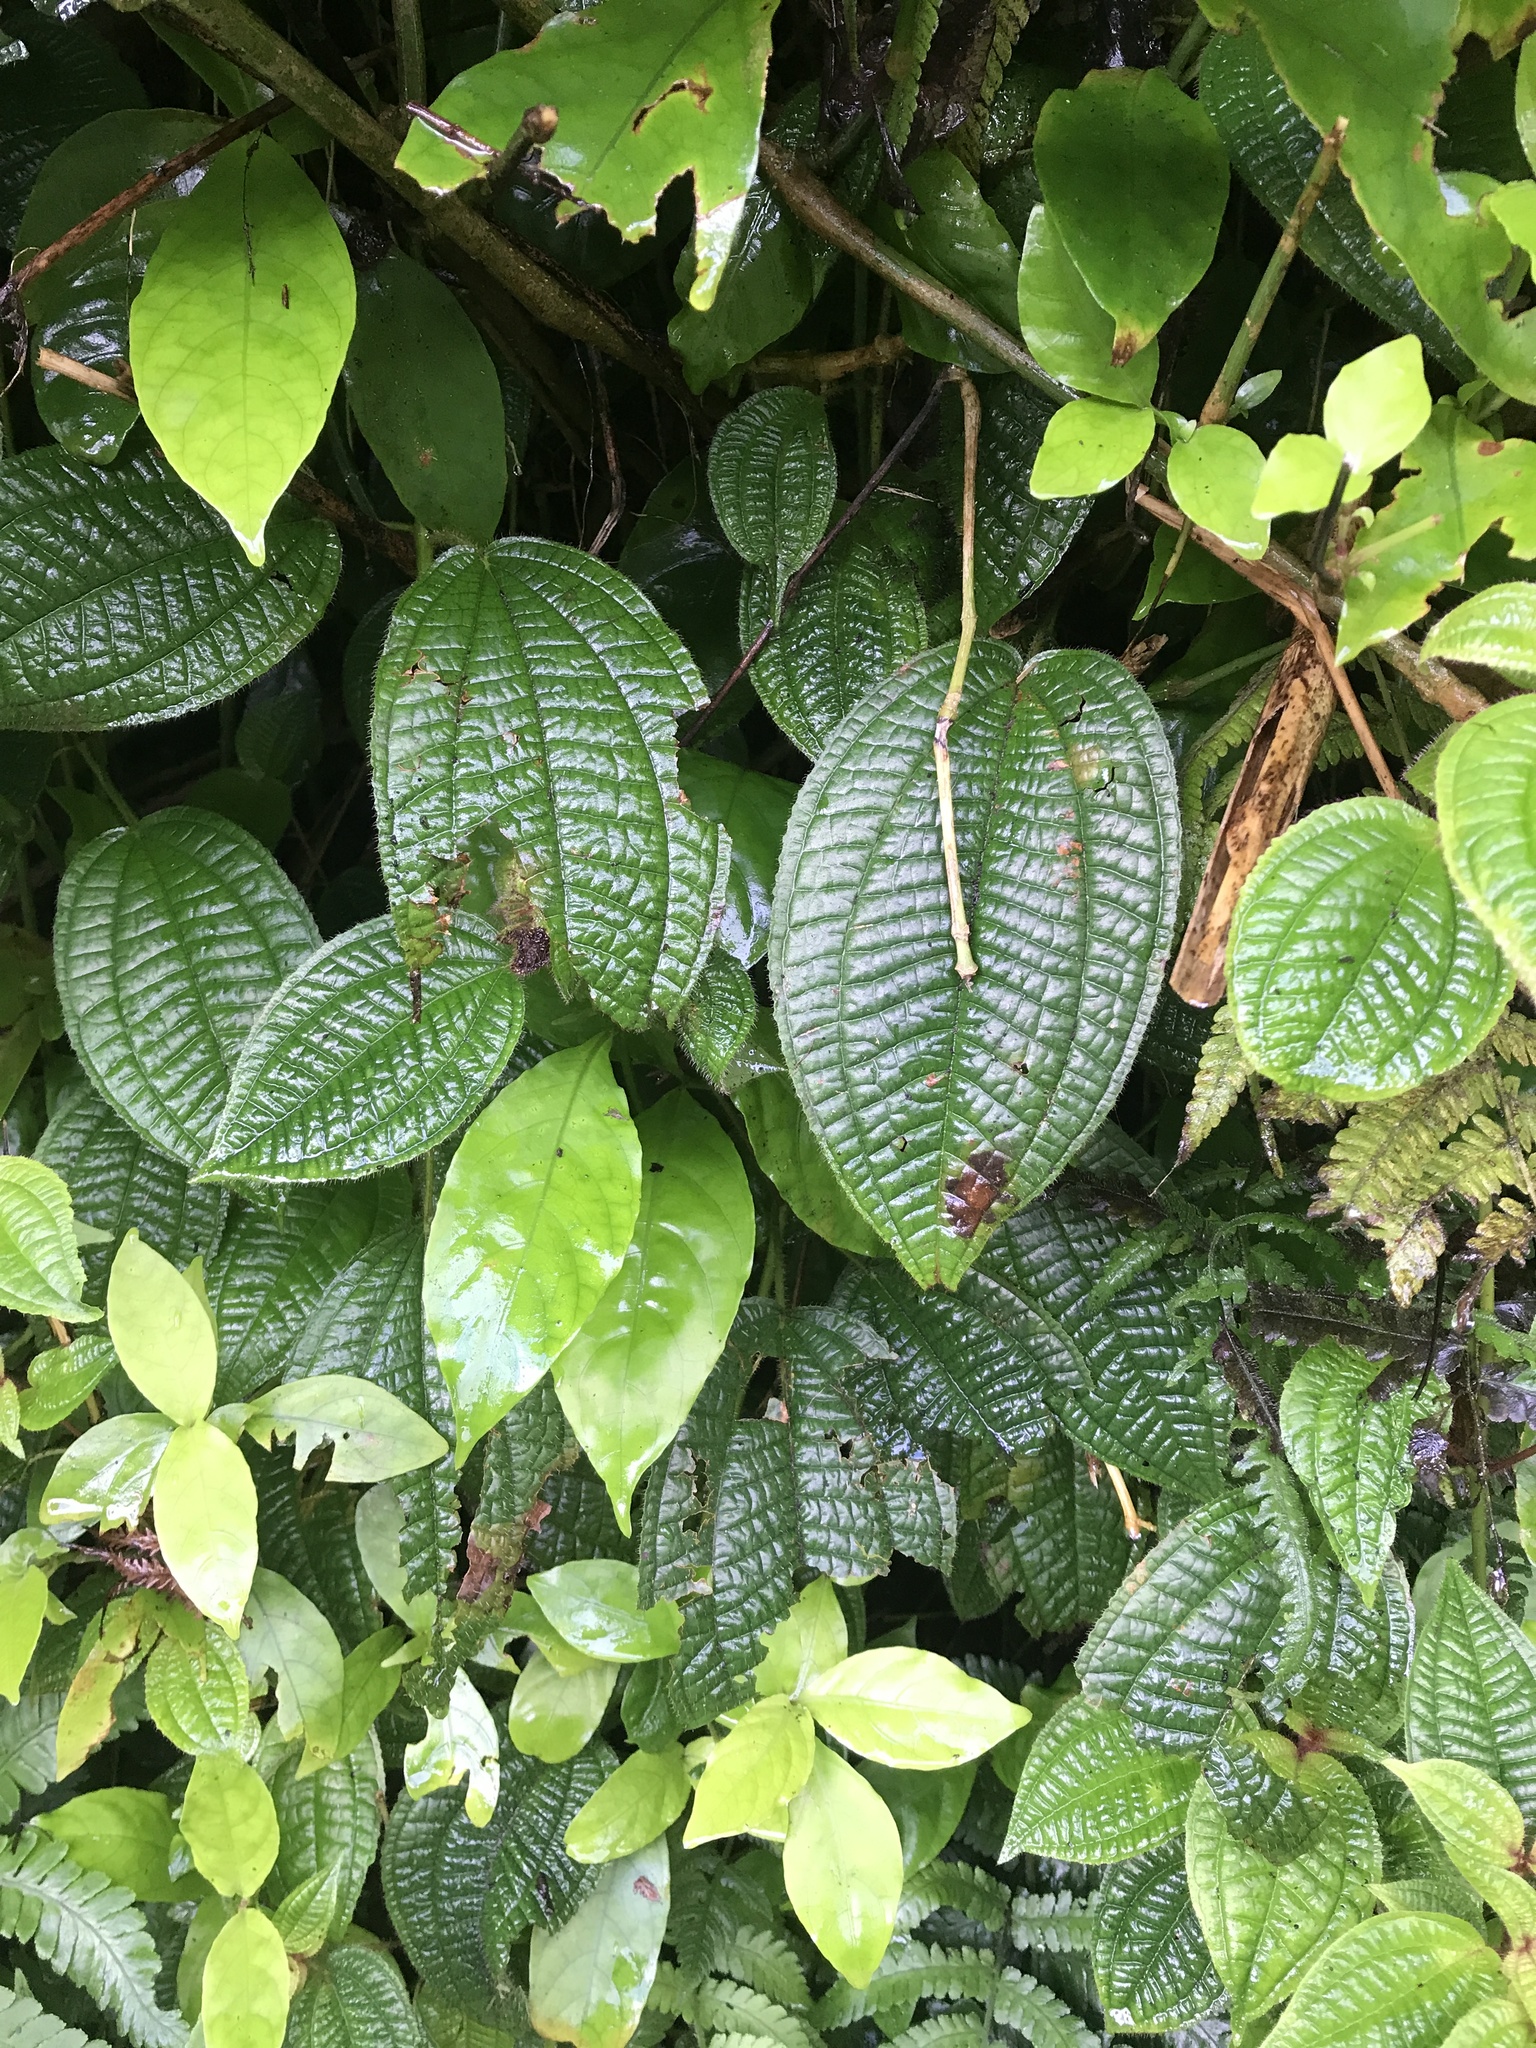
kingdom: Plantae
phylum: Tracheophyta
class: Magnoliopsida
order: Myrtales
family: Melastomataceae
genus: Miconia
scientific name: Miconia crenata
